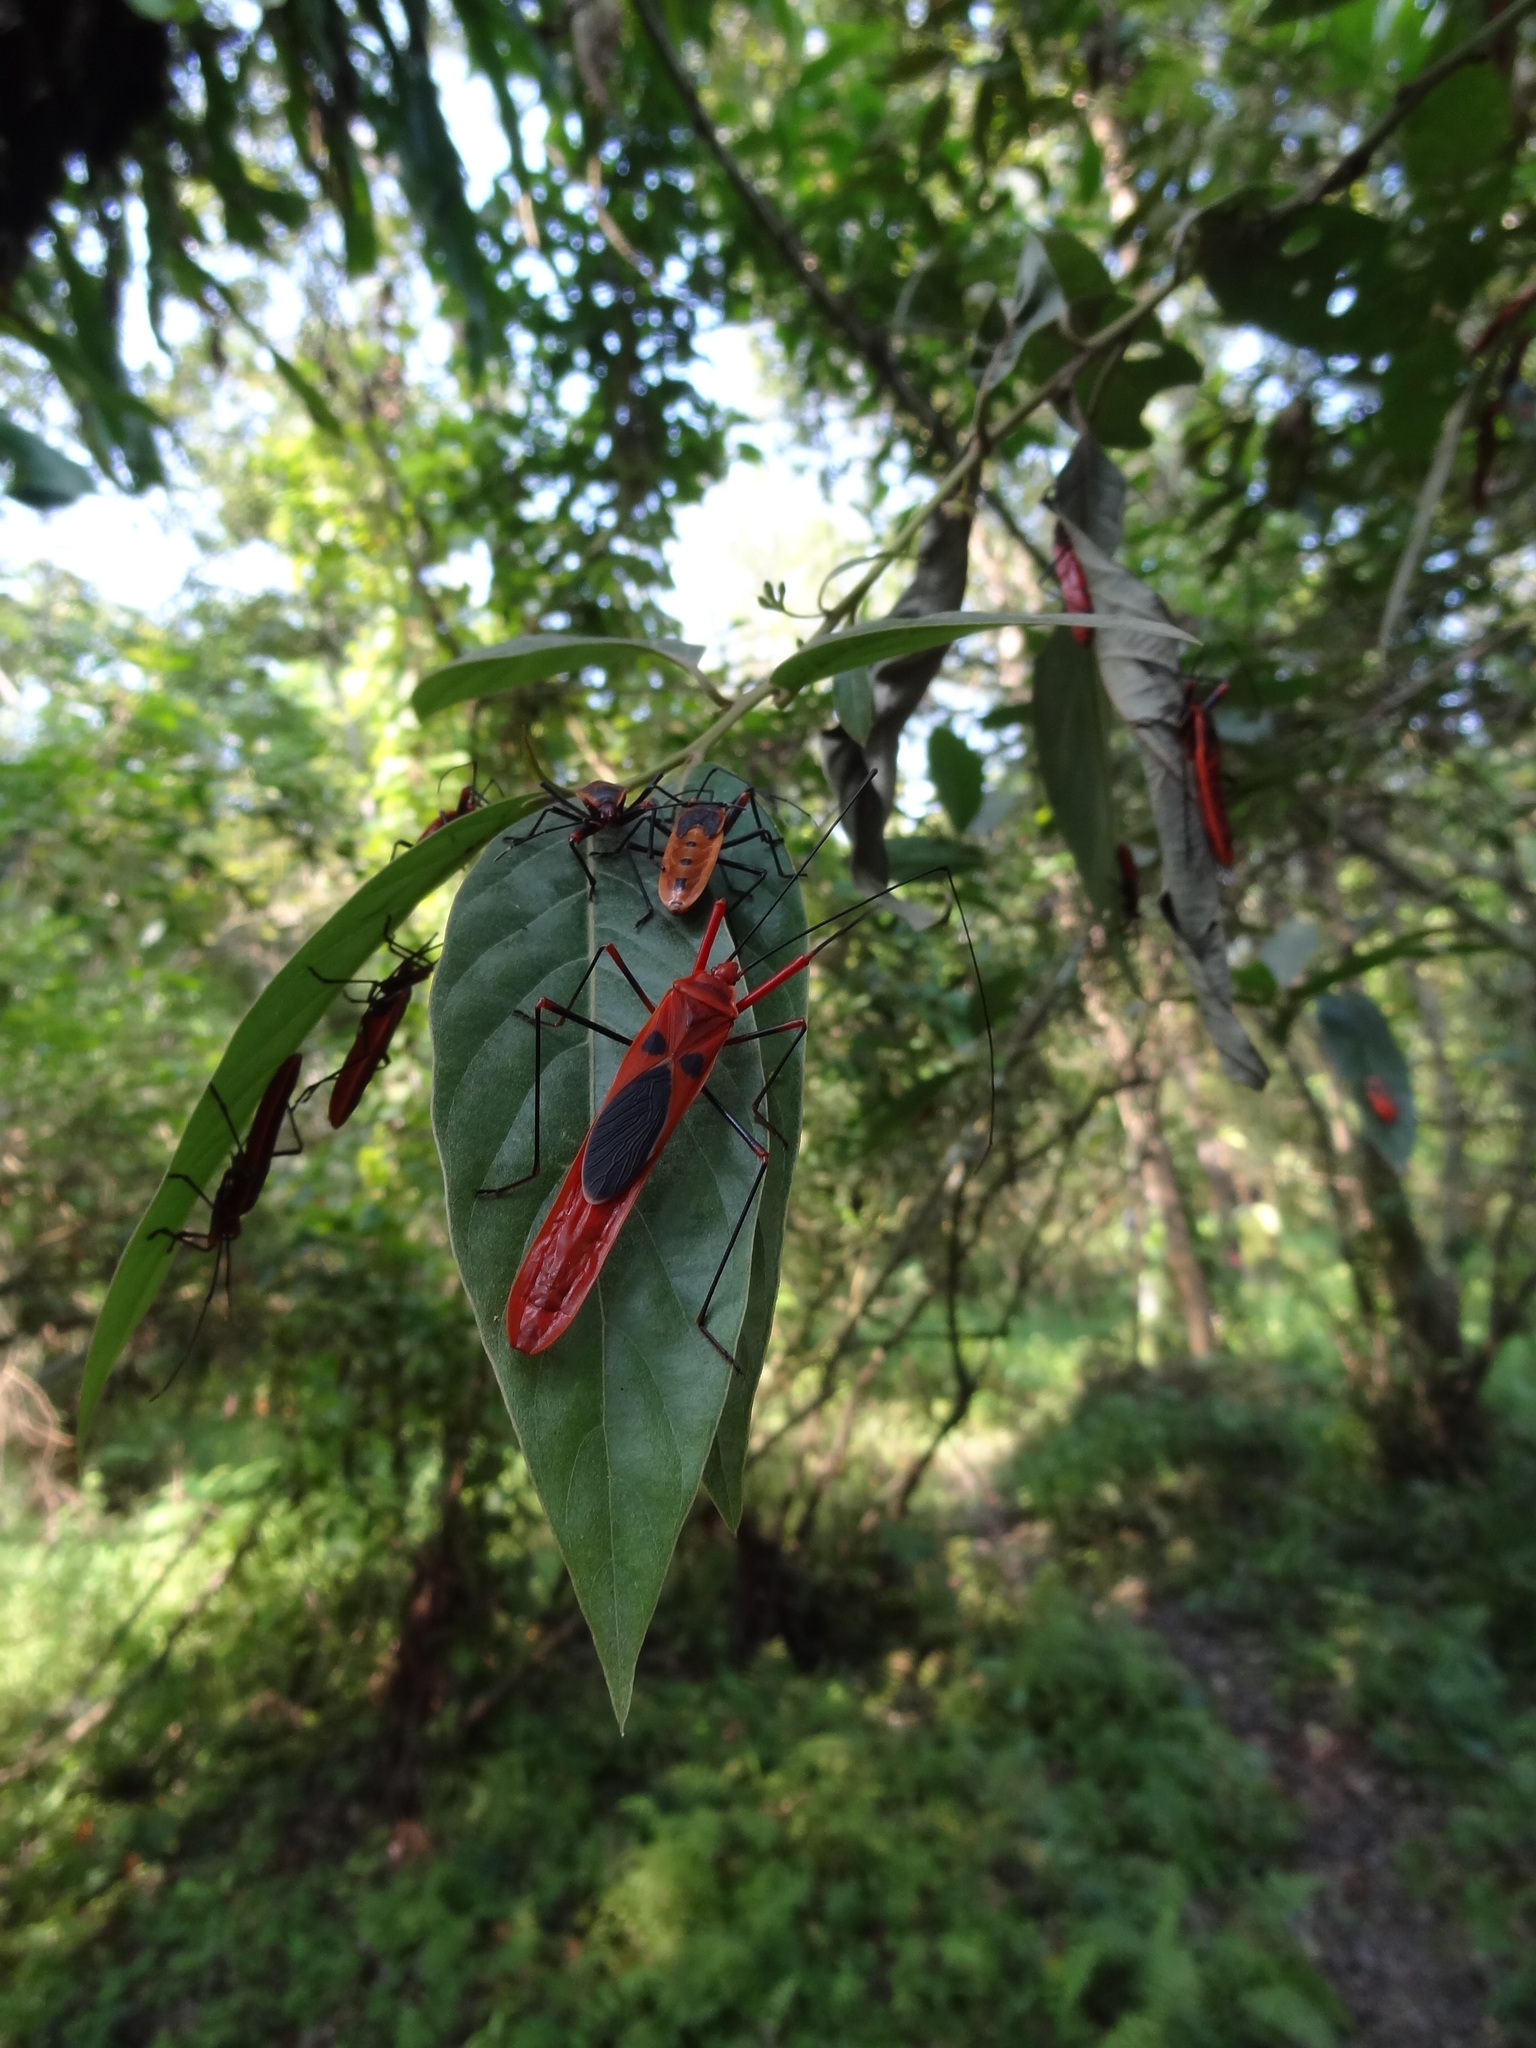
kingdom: Animalia
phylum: Arthropoda
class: Insecta
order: Hemiptera
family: Largidae
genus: Macrocheraia
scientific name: Macrocheraia grandis
